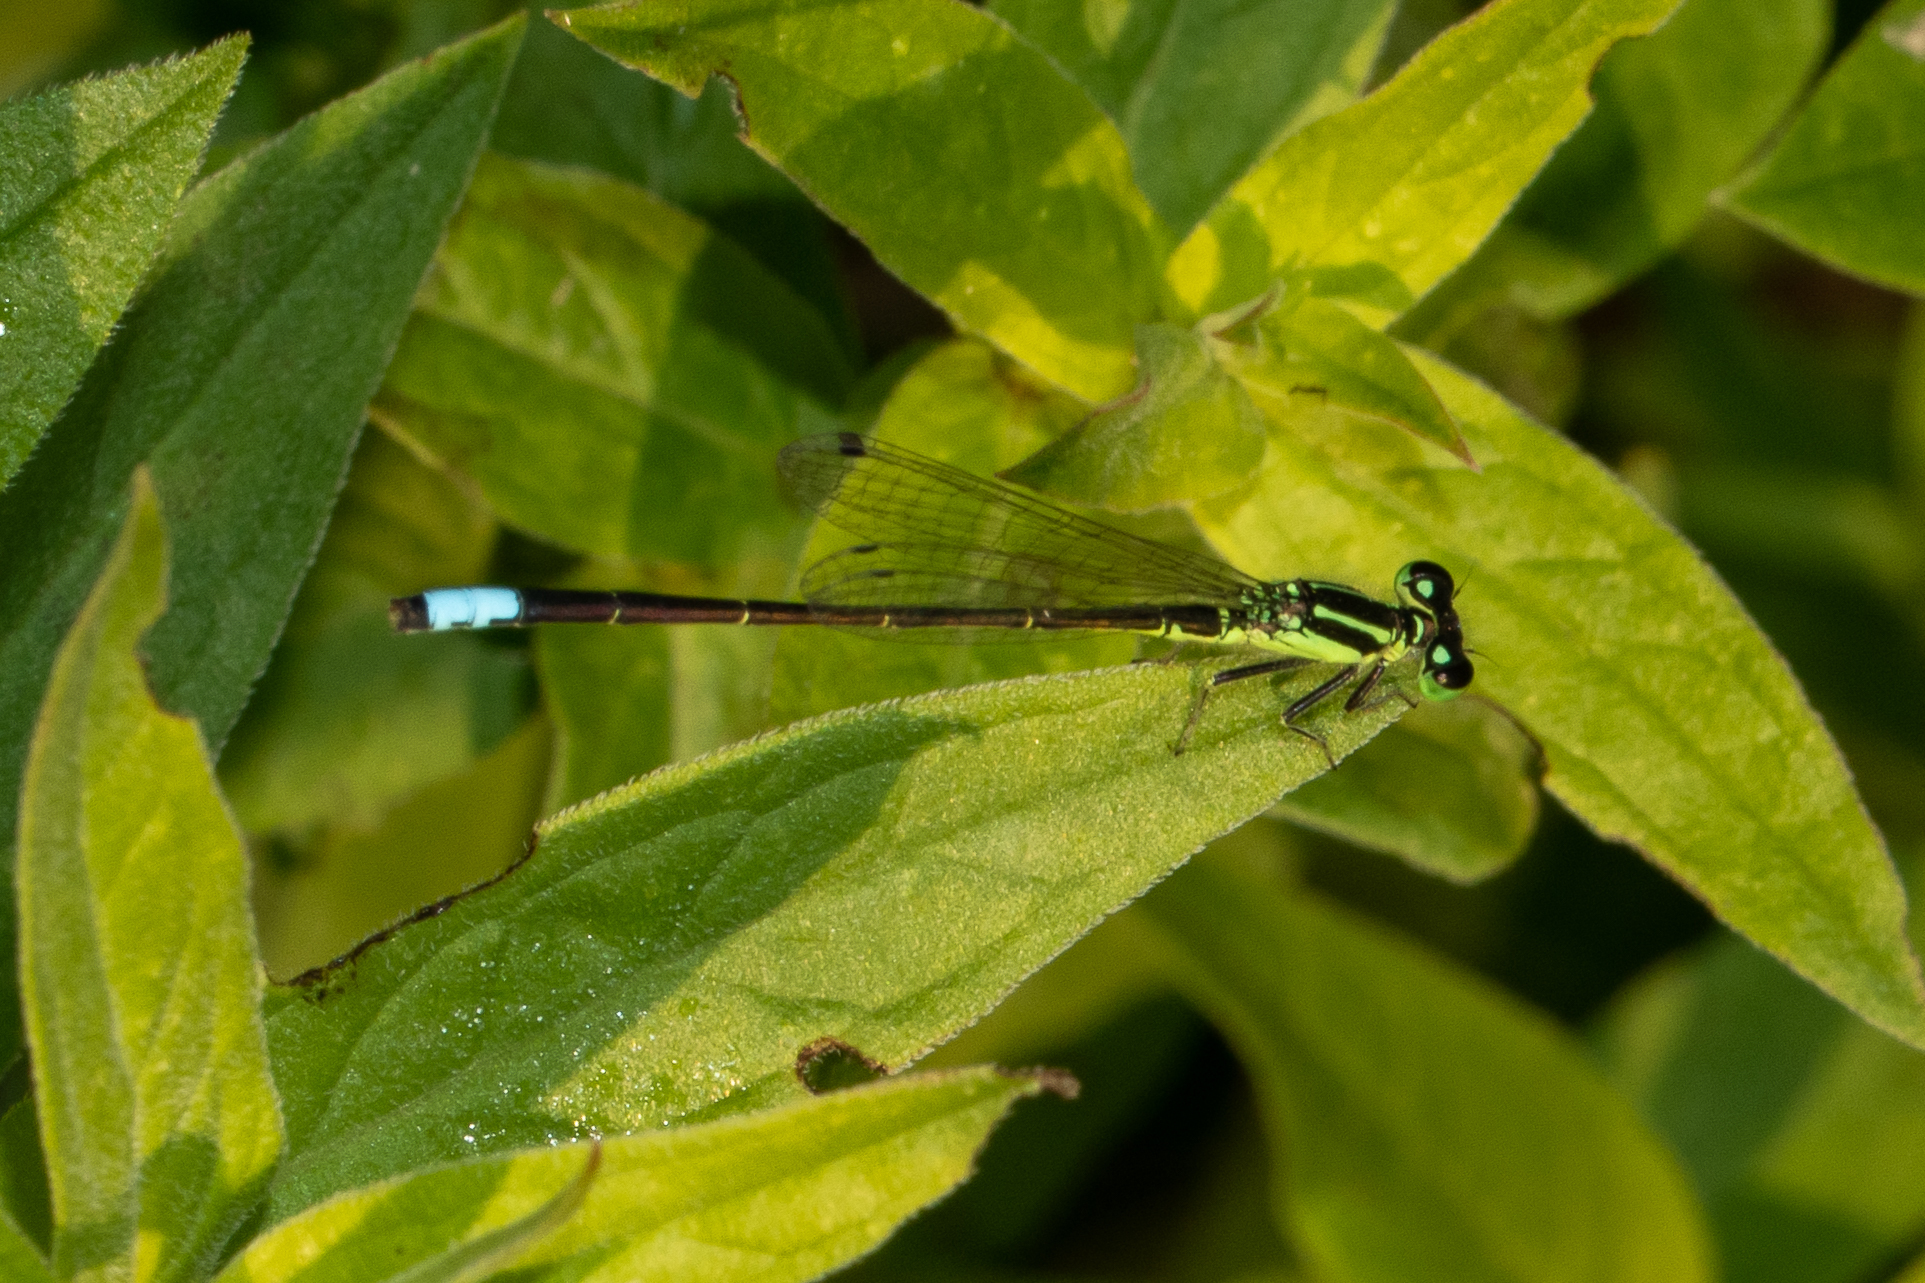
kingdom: Animalia
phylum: Arthropoda
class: Insecta
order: Odonata
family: Coenagrionidae
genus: Ischnura
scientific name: Ischnura verticalis
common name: Eastern forktail
